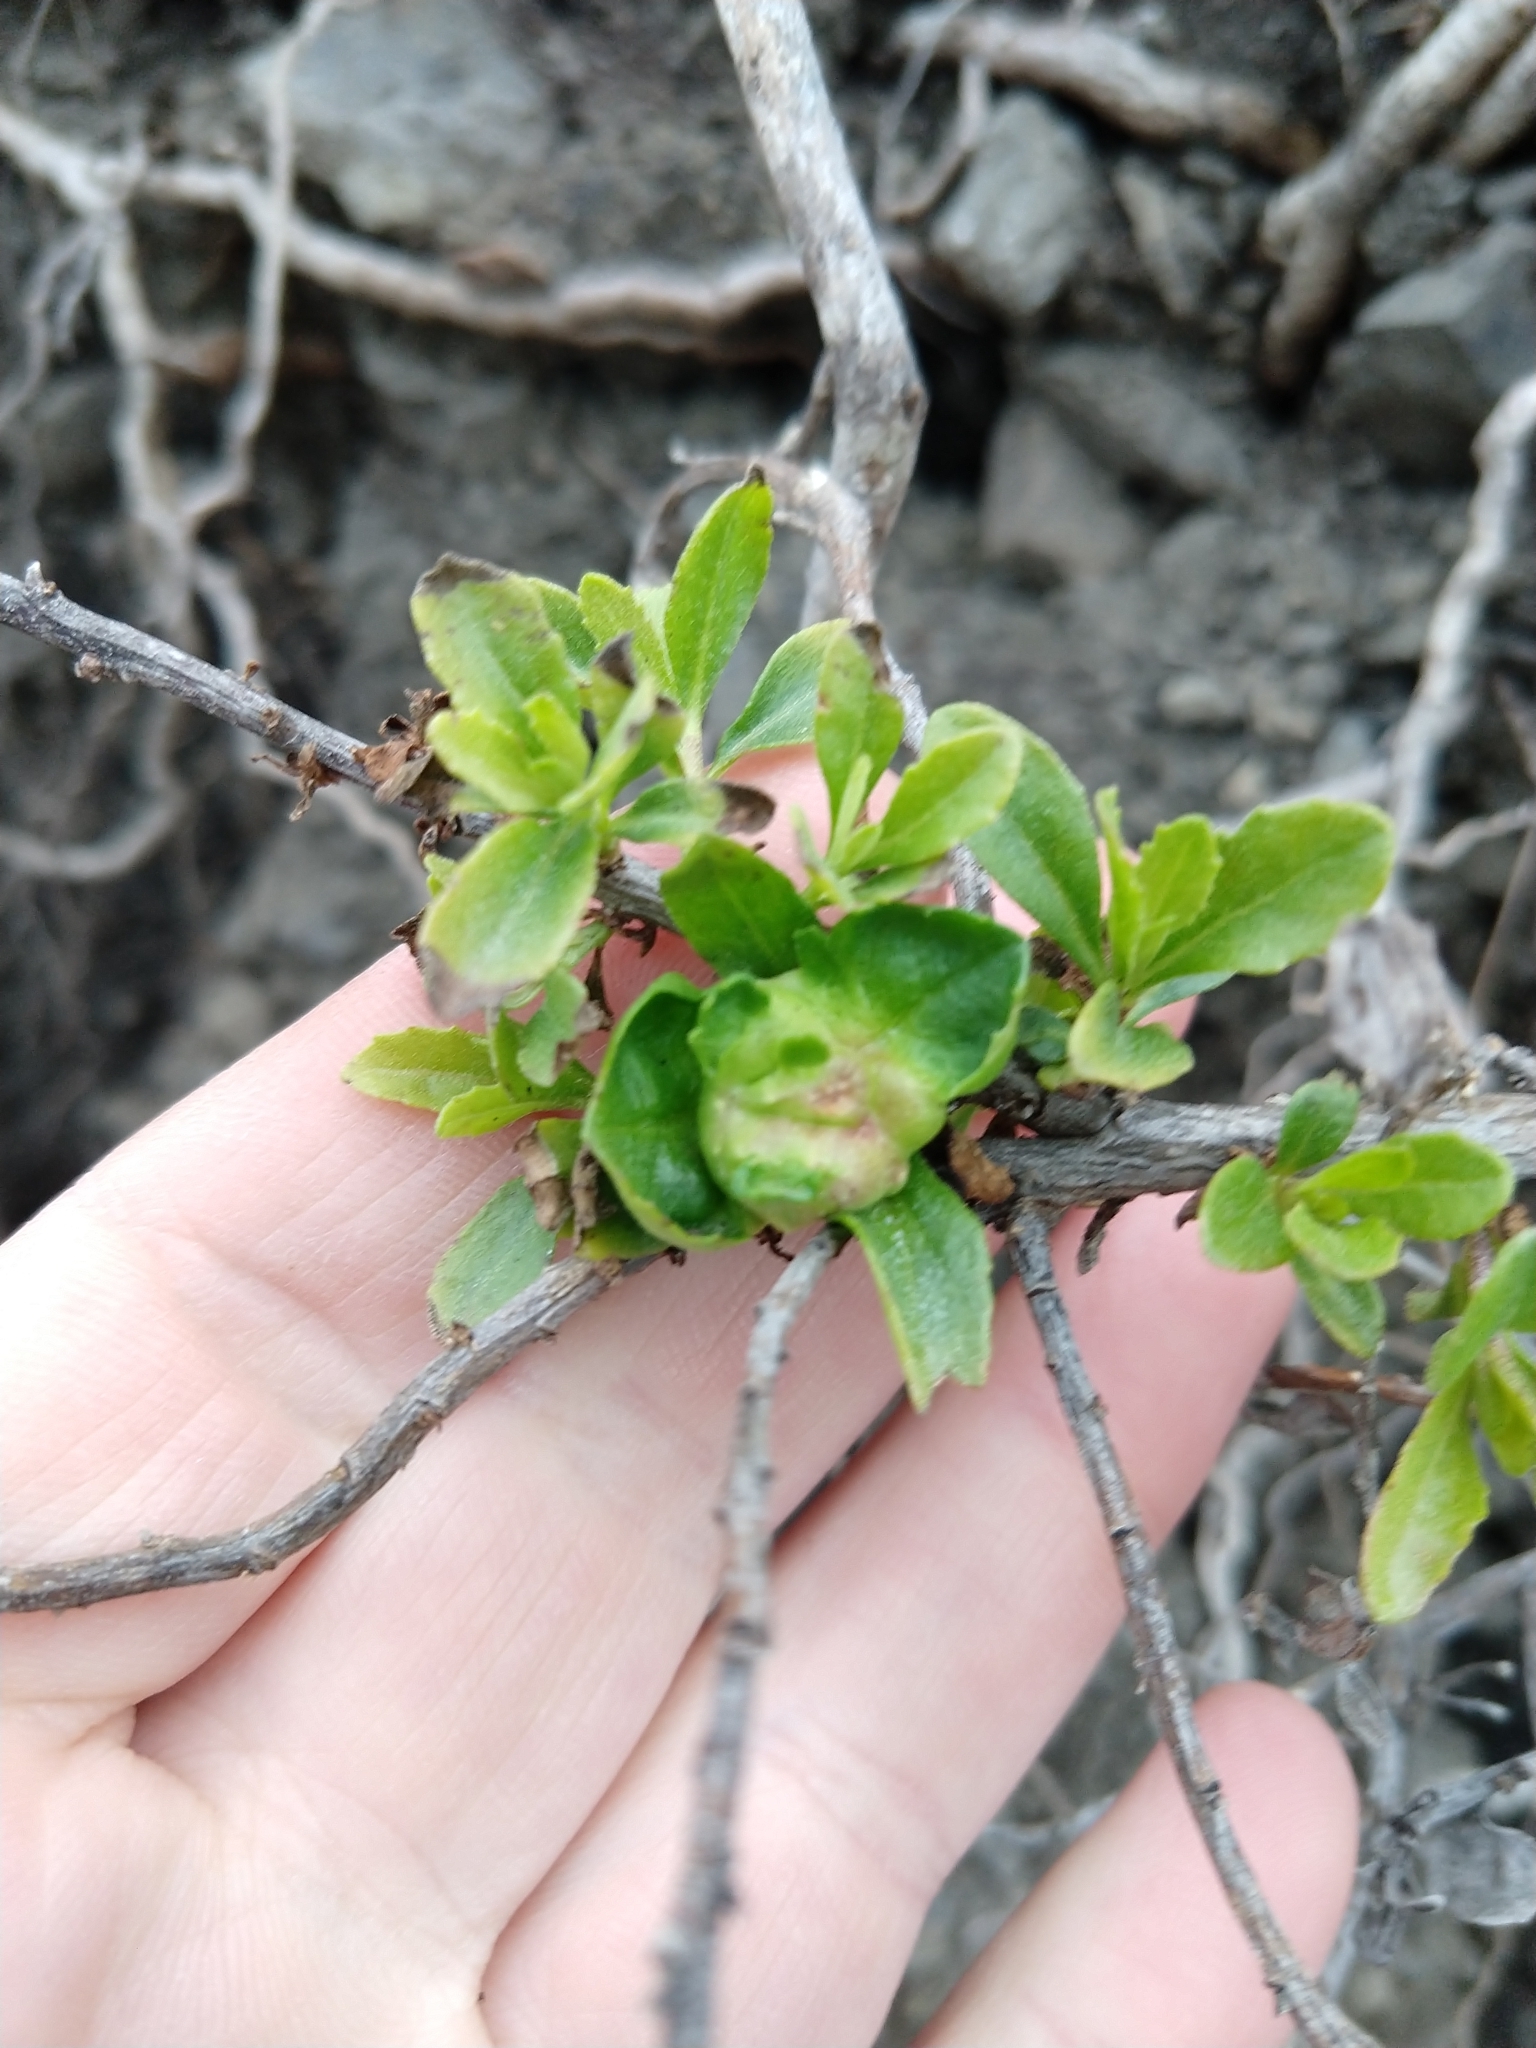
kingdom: Animalia
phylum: Arthropoda
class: Insecta
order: Diptera
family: Cecidomyiidae
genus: Rhopalomyia
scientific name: Rhopalomyia californica
